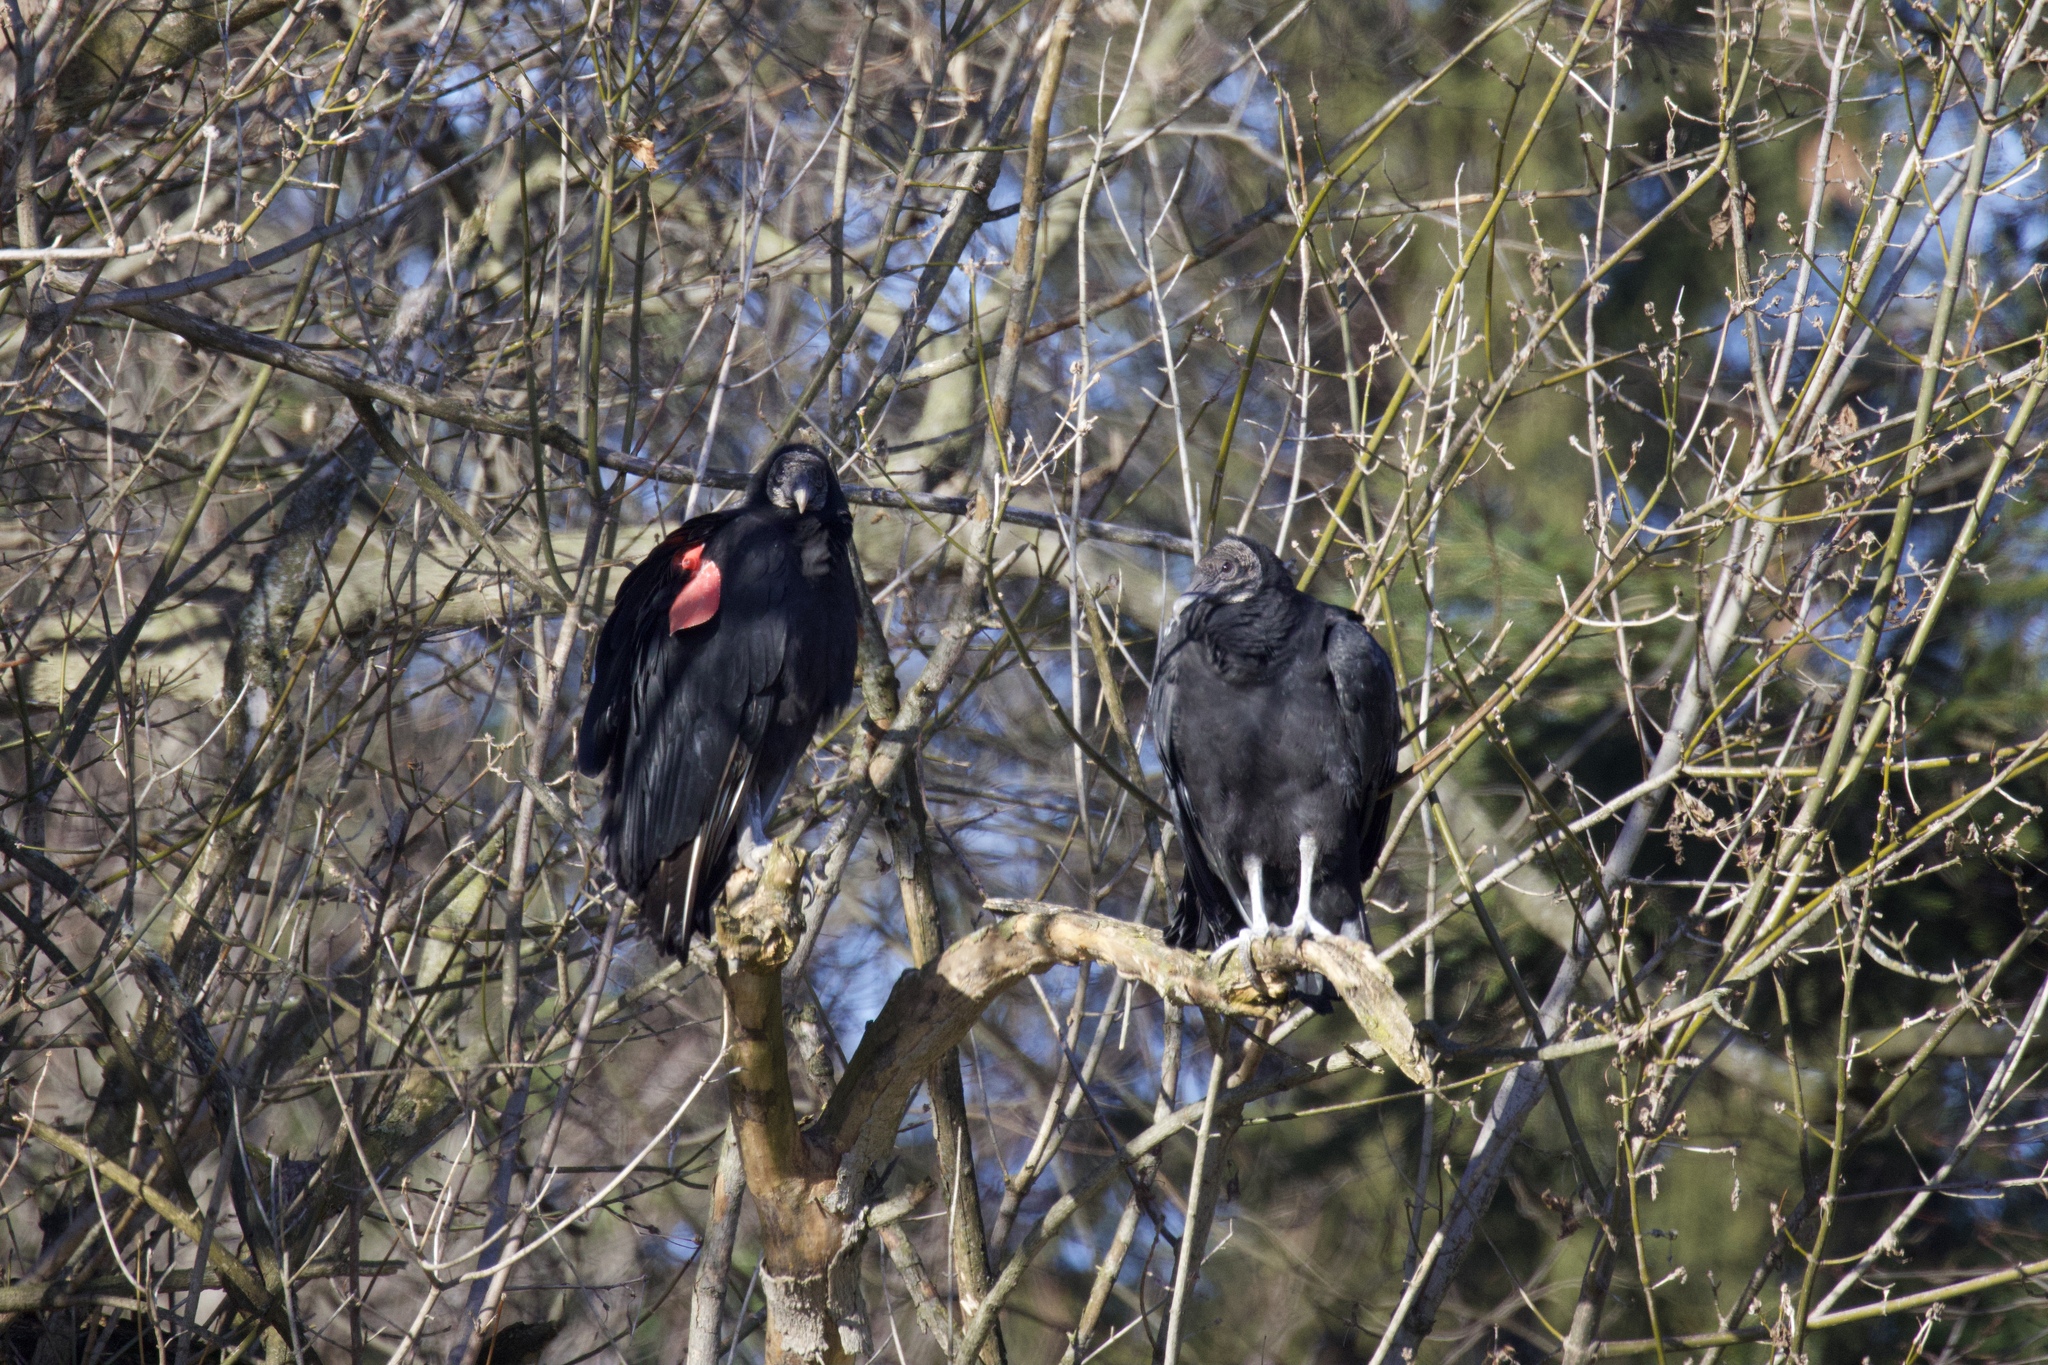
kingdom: Animalia
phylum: Chordata
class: Aves
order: Accipitriformes
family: Cathartidae
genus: Coragyps
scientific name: Coragyps atratus
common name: Black vulture
